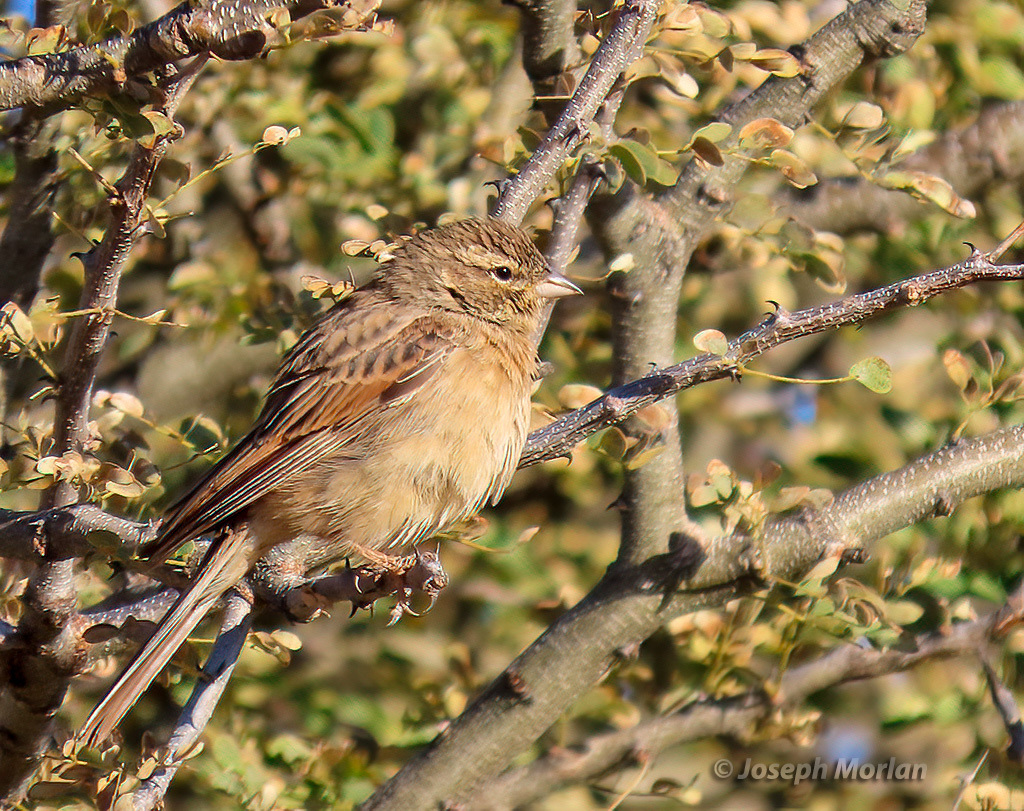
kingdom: Animalia
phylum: Chordata
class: Aves
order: Passeriformes
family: Emberizidae
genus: Emberiza
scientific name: Emberiza impetuani
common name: Lark-like bunting
